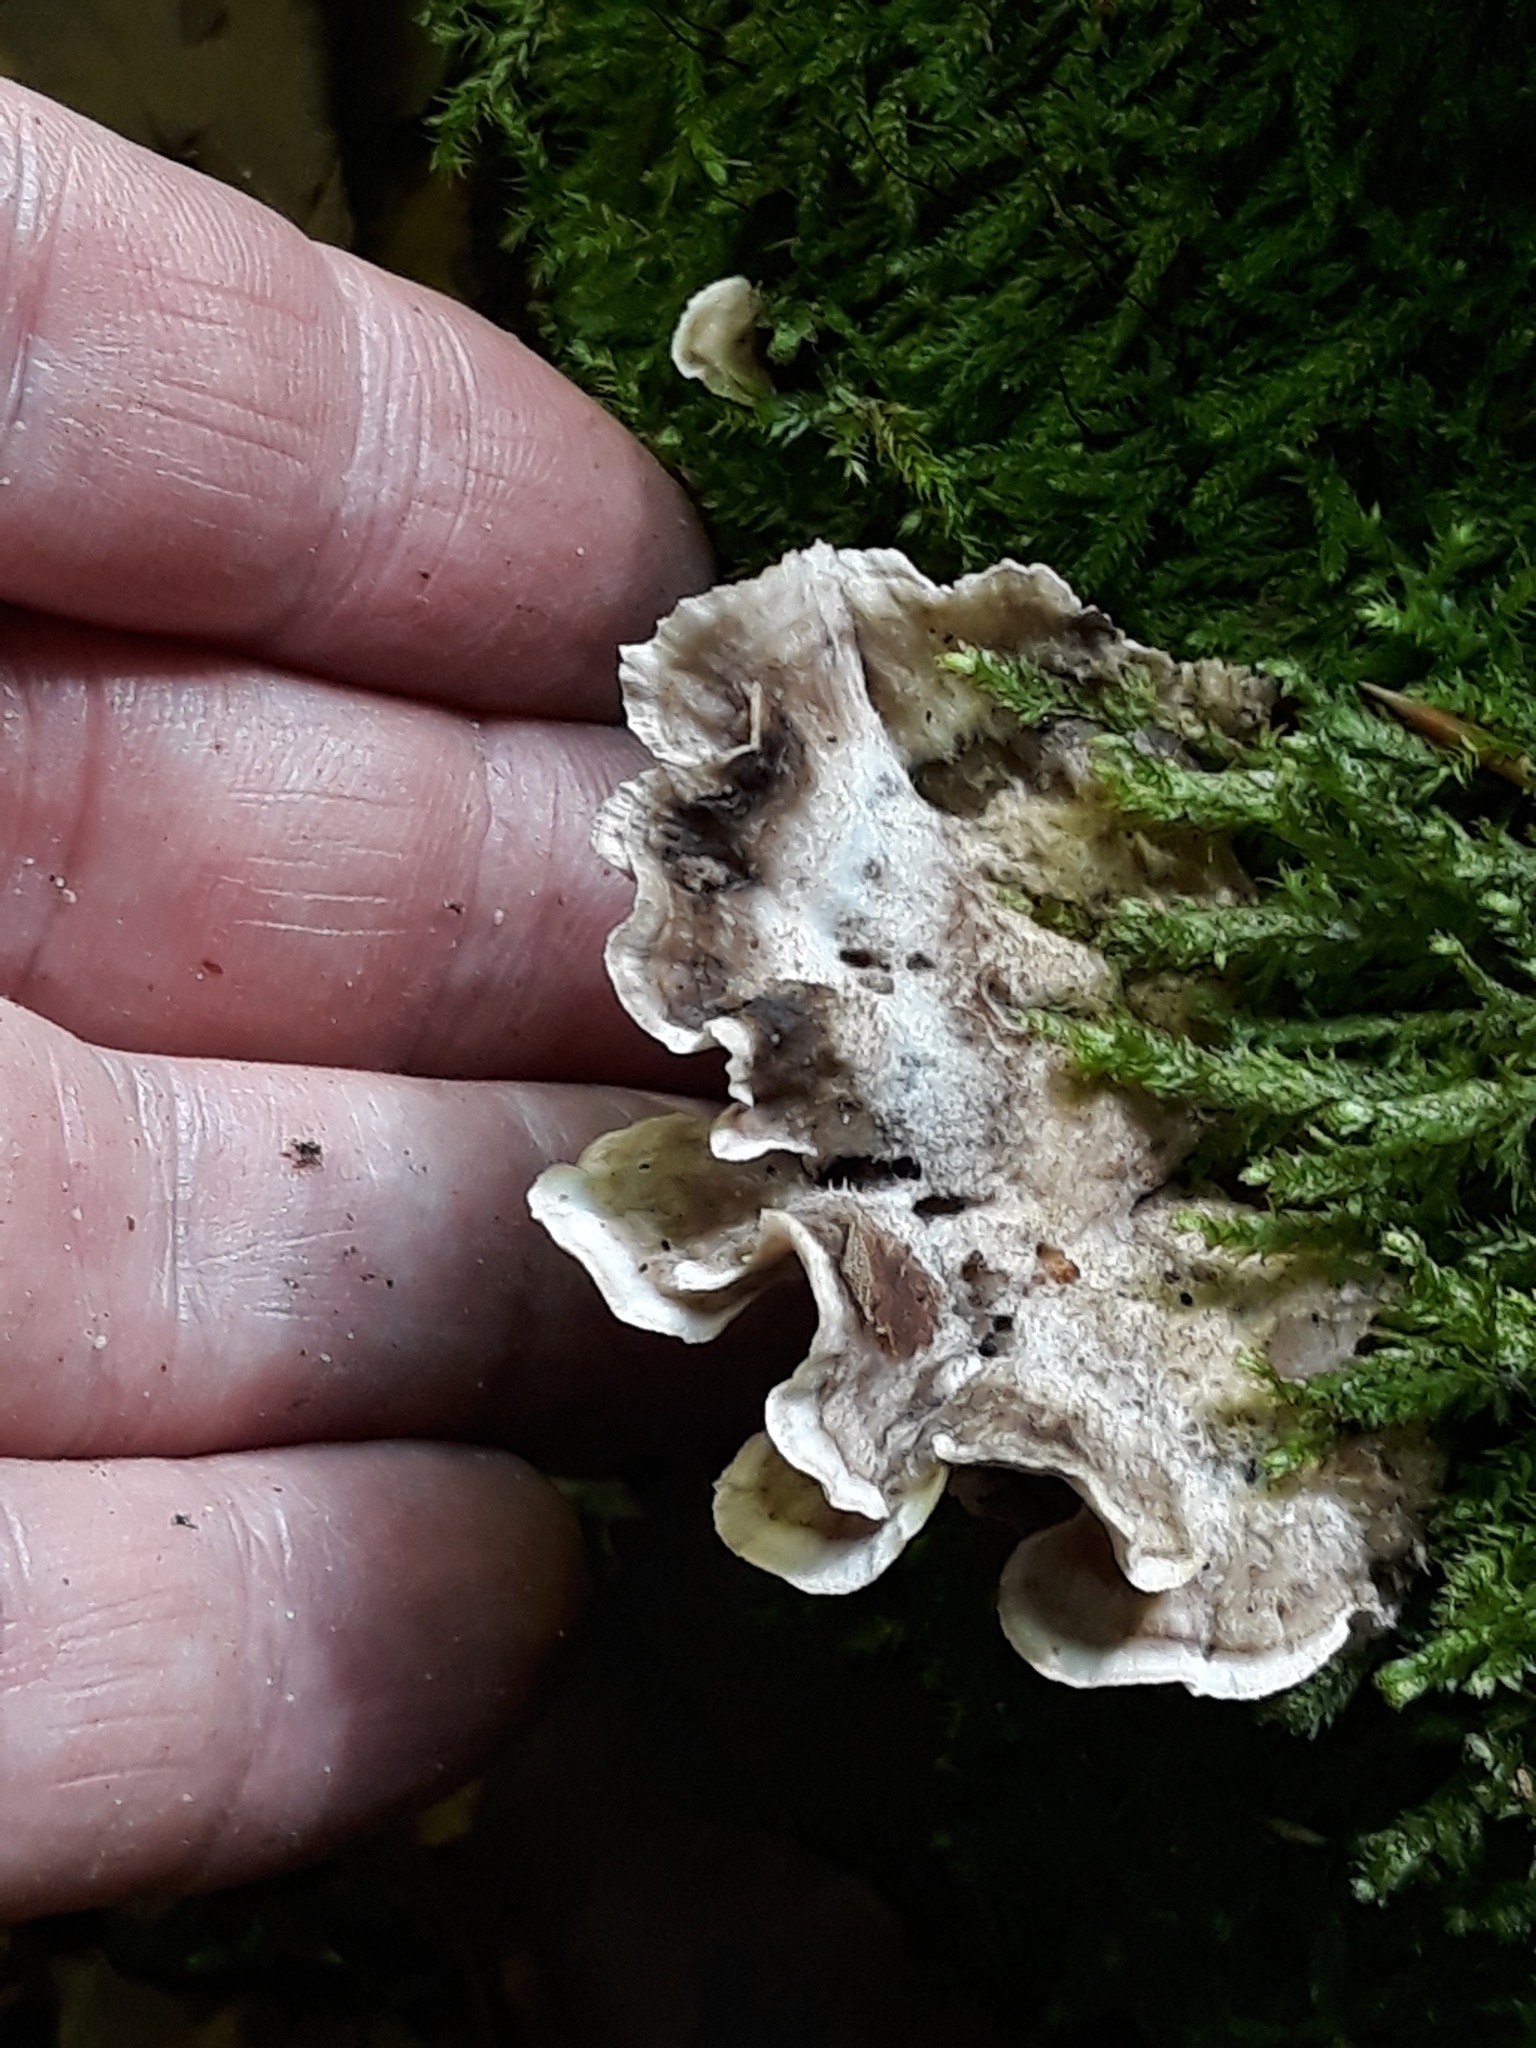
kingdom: Fungi
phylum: Basidiomycota
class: Agaricomycetes
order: Polyporales
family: Phanerochaetaceae
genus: Bjerkandera
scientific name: Bjerkandera adusta
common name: Smoky bracket
